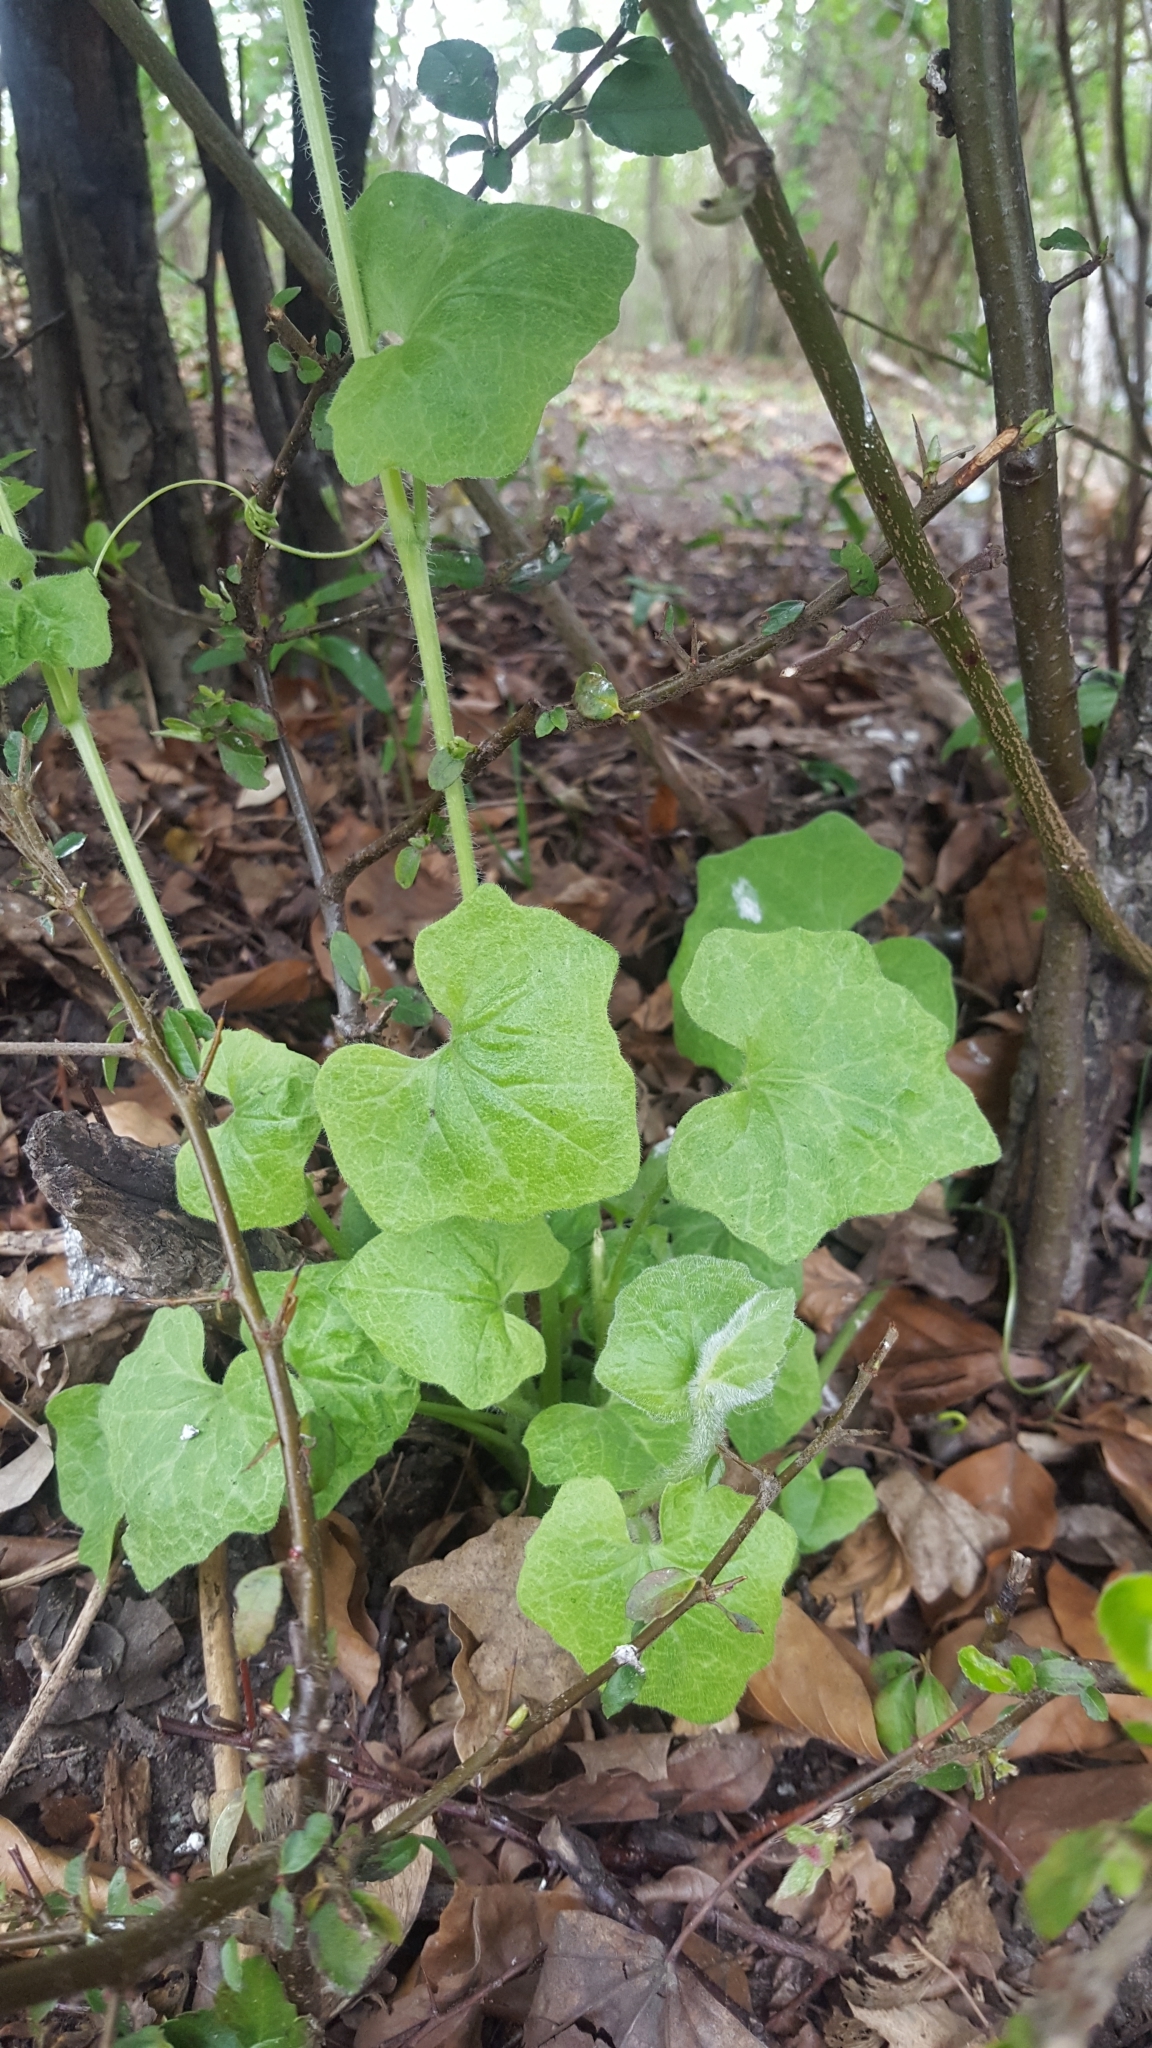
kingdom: Plantae
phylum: Tracheophyta
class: Magnoliopsida
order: Cucurbitales
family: Cucurbitaceae
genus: Bryonia
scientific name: Bryonia cretica
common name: Cretan bryony
